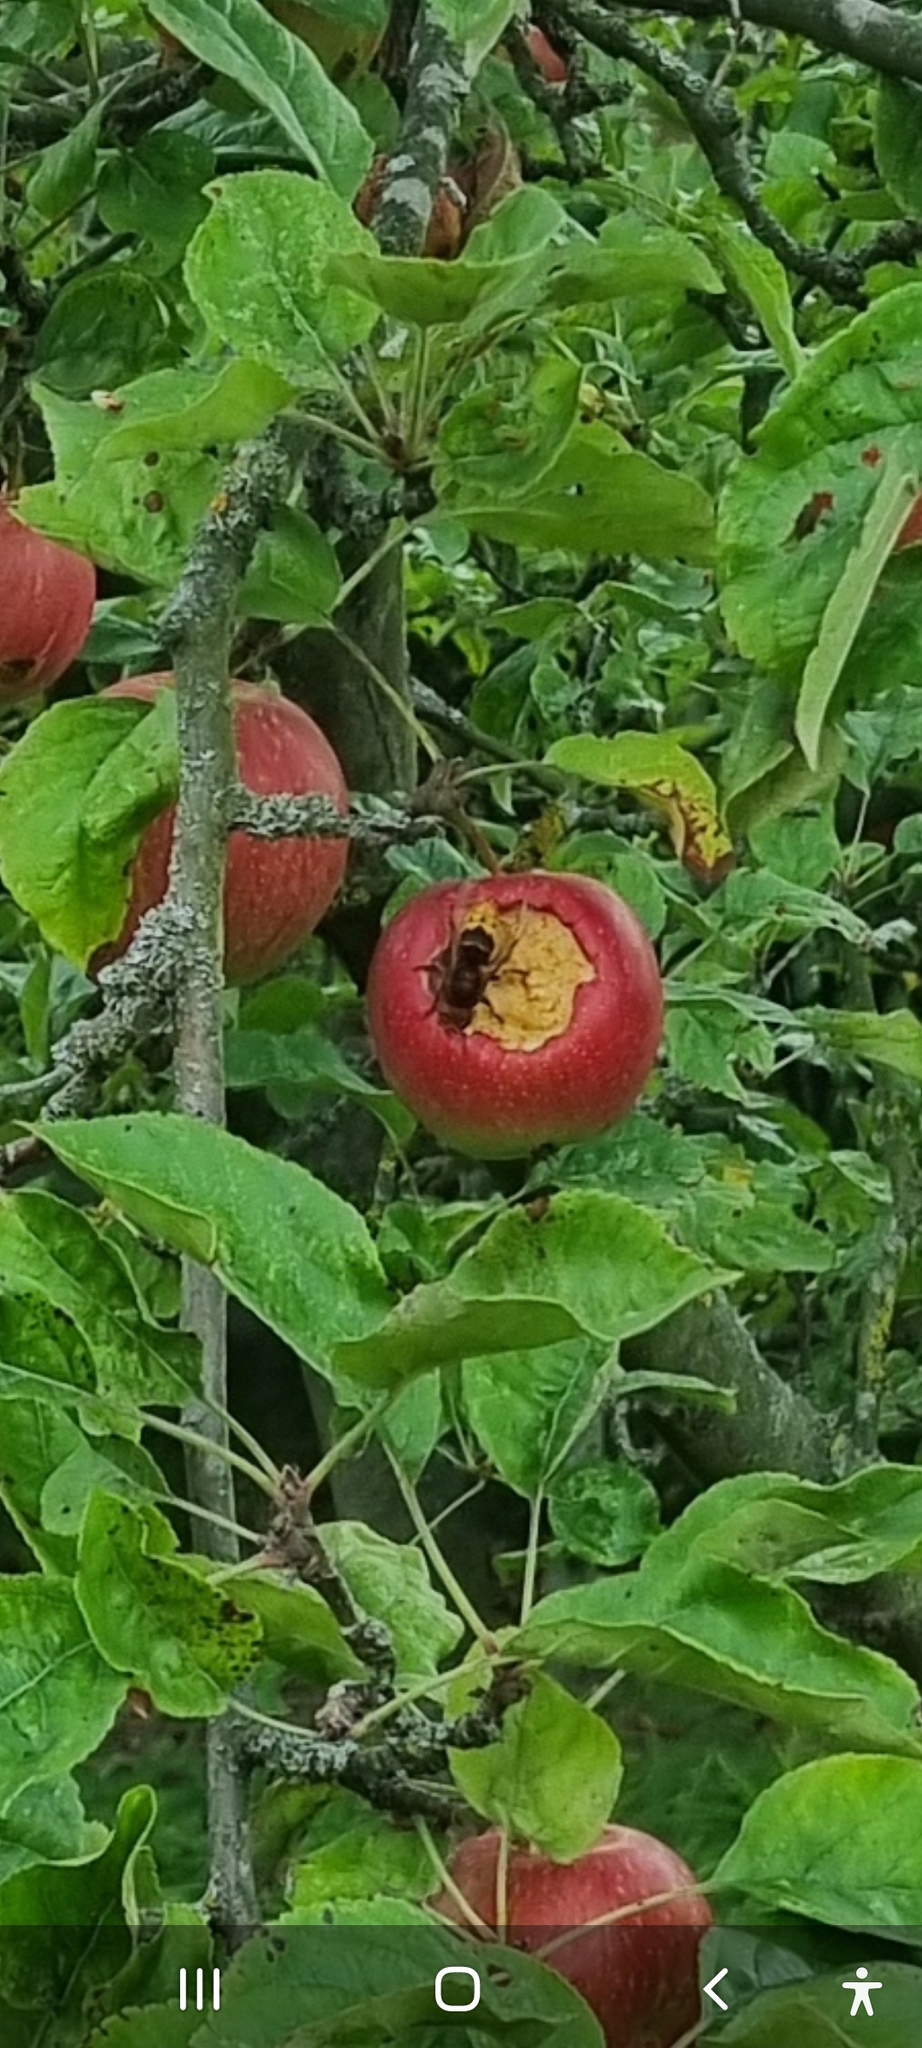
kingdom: Animalia
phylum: Arthropoda
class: Insecta
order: Hymenoptera
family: Vespidae
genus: Vespa
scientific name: Vespa crabro
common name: Hornet
